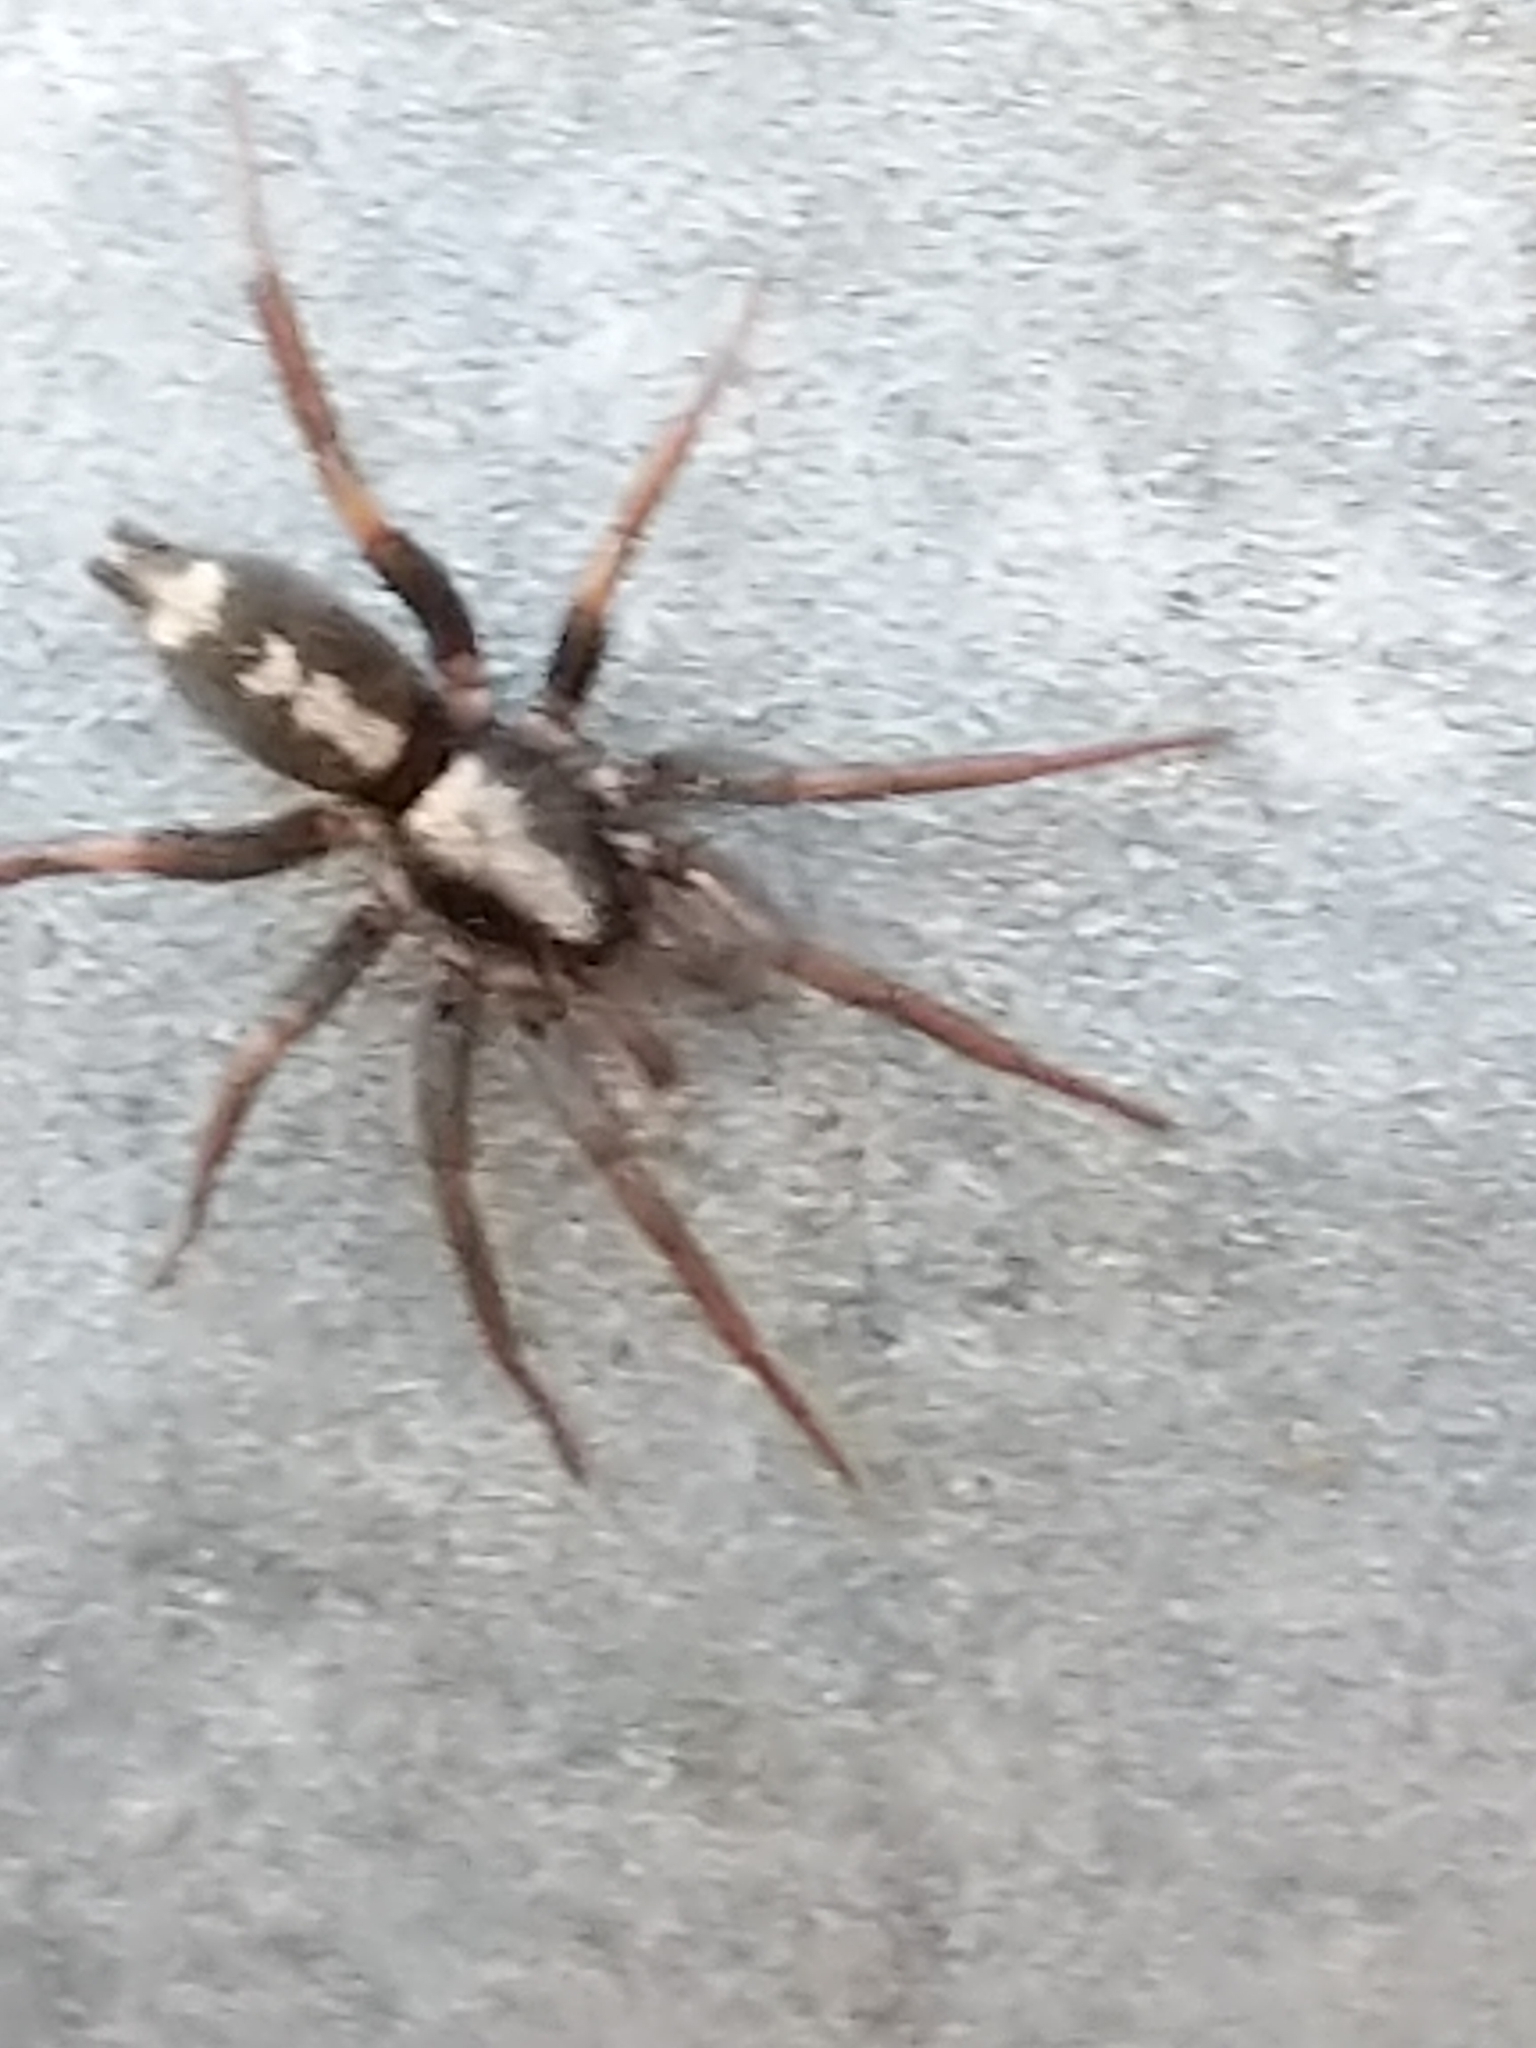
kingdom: Animalia
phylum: Arthropoda
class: Arachnida
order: Araneae
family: Gnaphosidae
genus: Herpyllus
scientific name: Herpyllus ecclesiasticus
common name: Eastern parson spider
